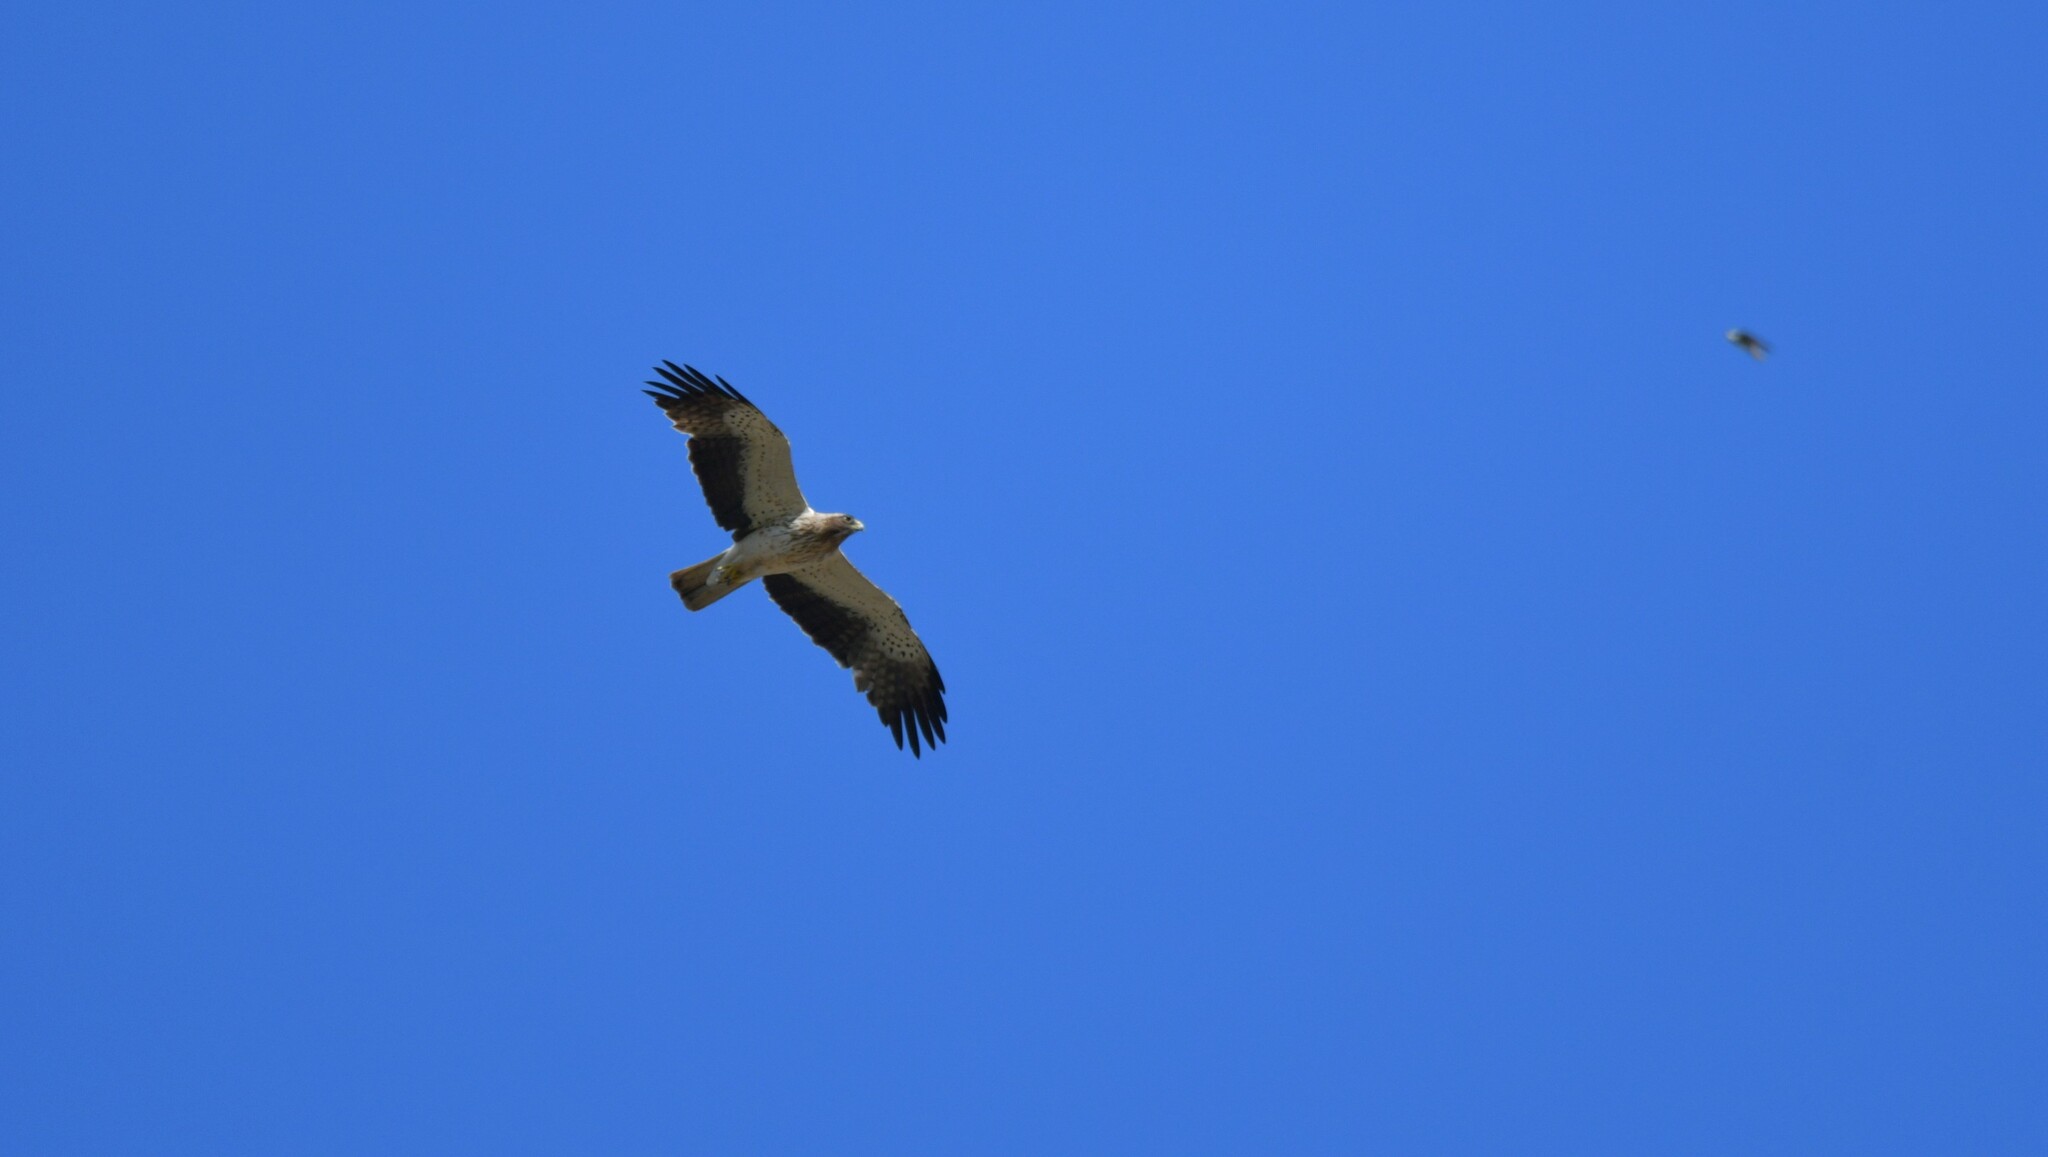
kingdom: Animalia
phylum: Chordata
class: Aves
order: Accipitriformes
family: Accipitridae
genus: Hieraaetus
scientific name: Hieraaetus pennatus
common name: Booted eagle
